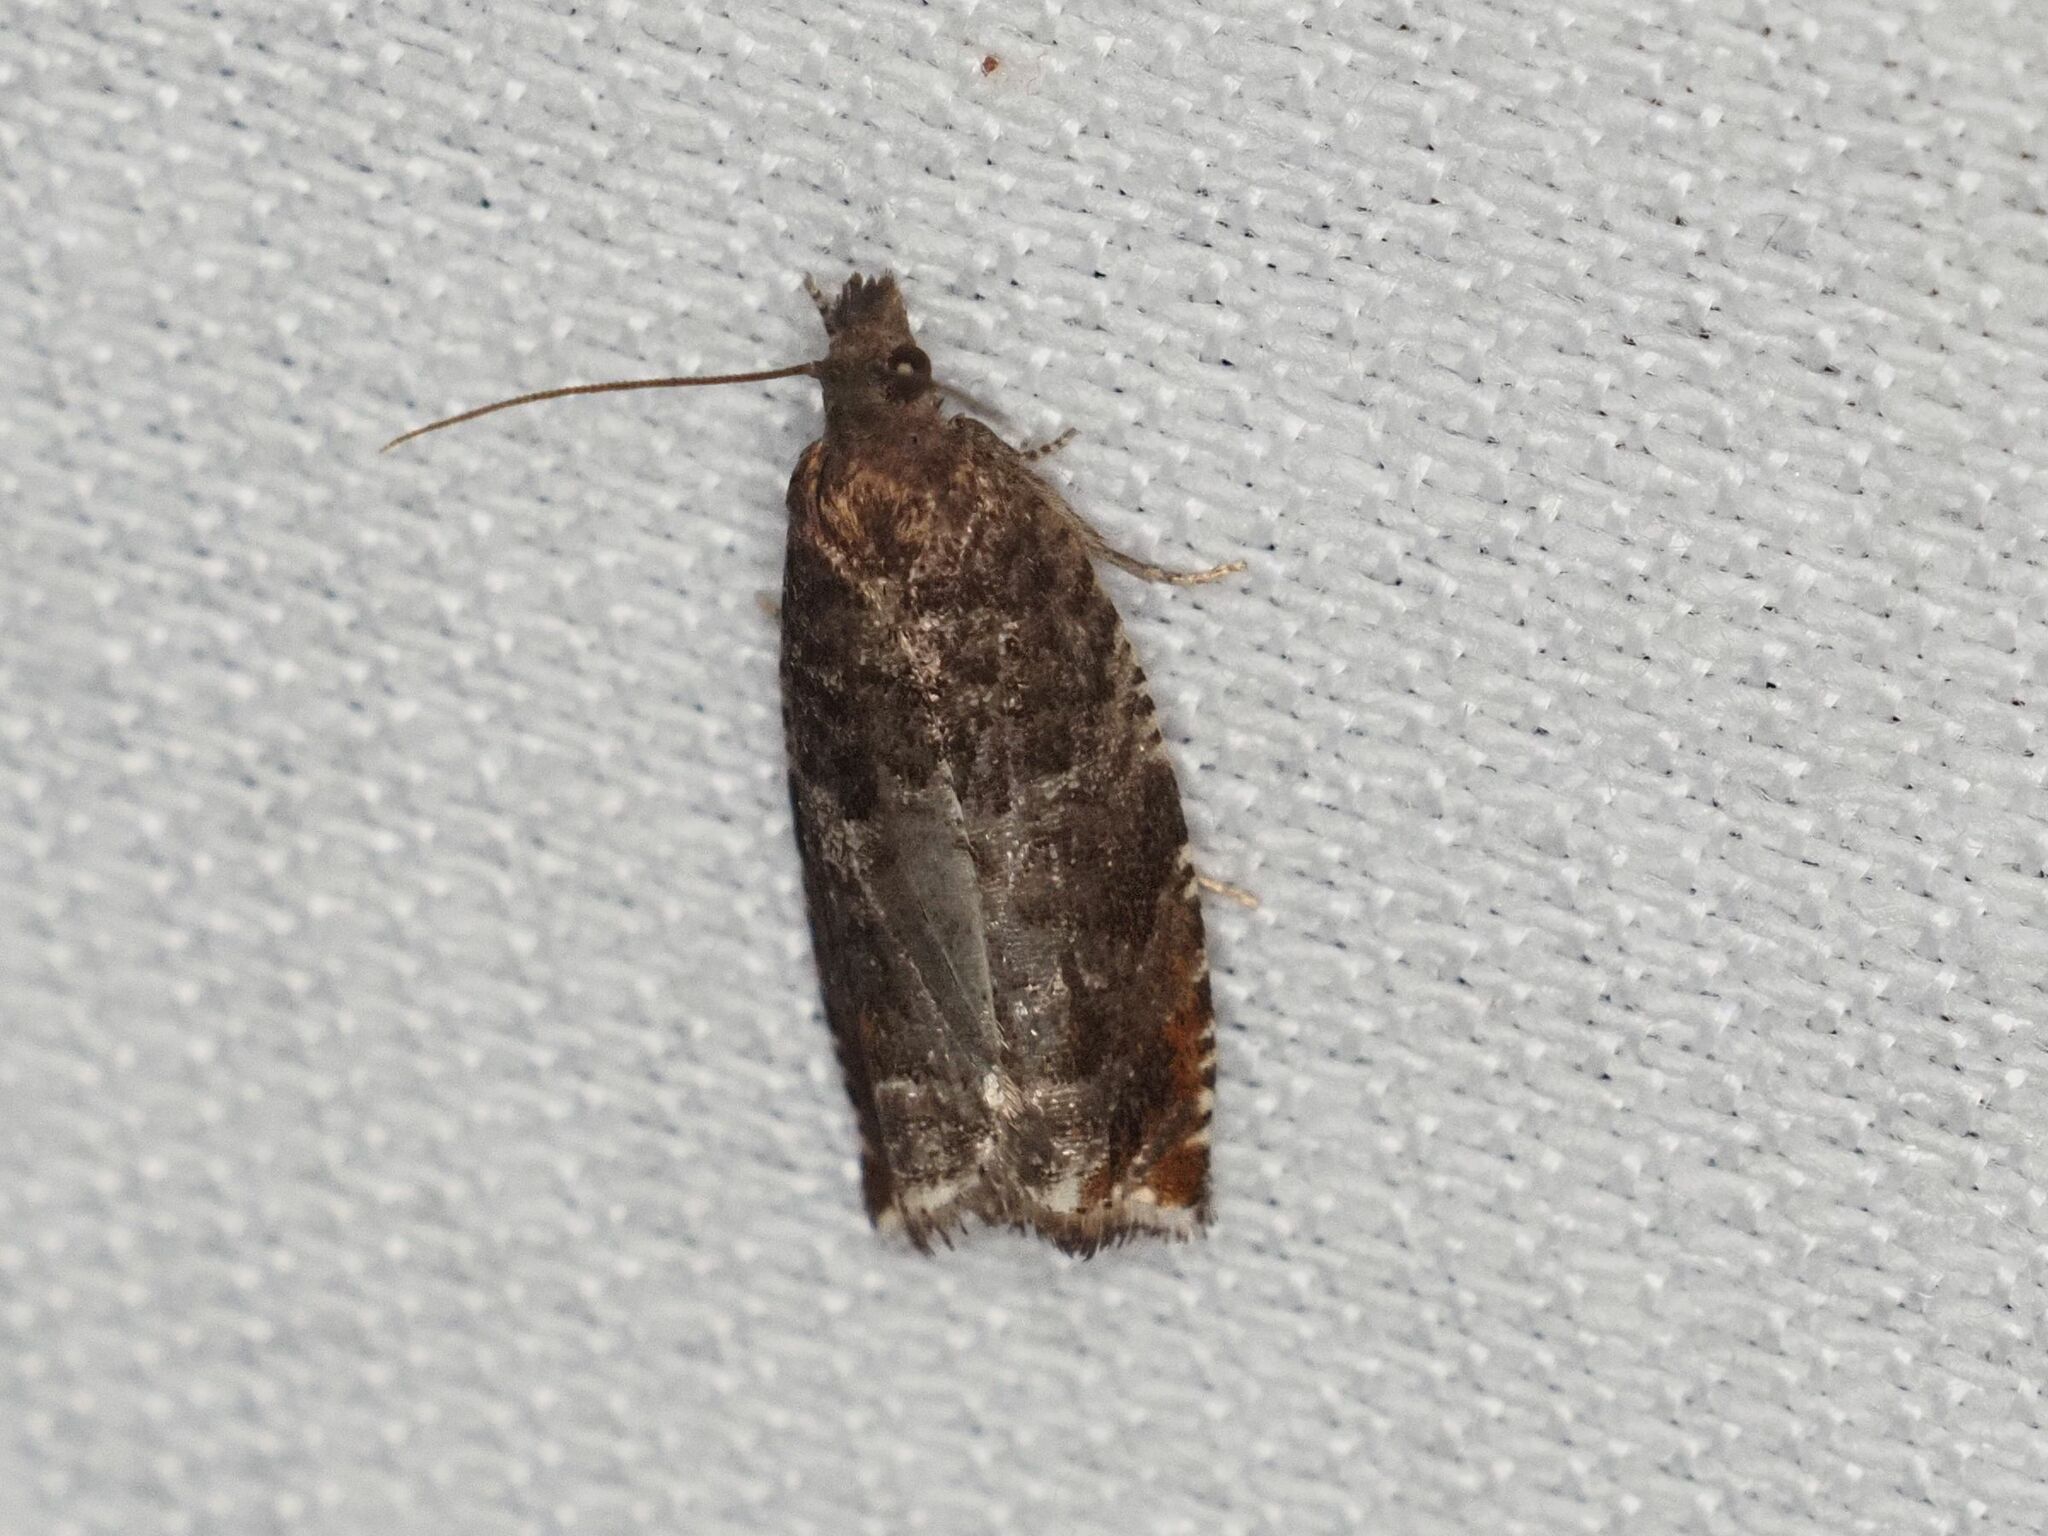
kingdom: Animalia
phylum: Arthropoda
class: Insecta
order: Lepidoptera
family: Tortricidae
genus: Ancylis
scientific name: Ancylis achatana
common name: Triangle-marked roller
